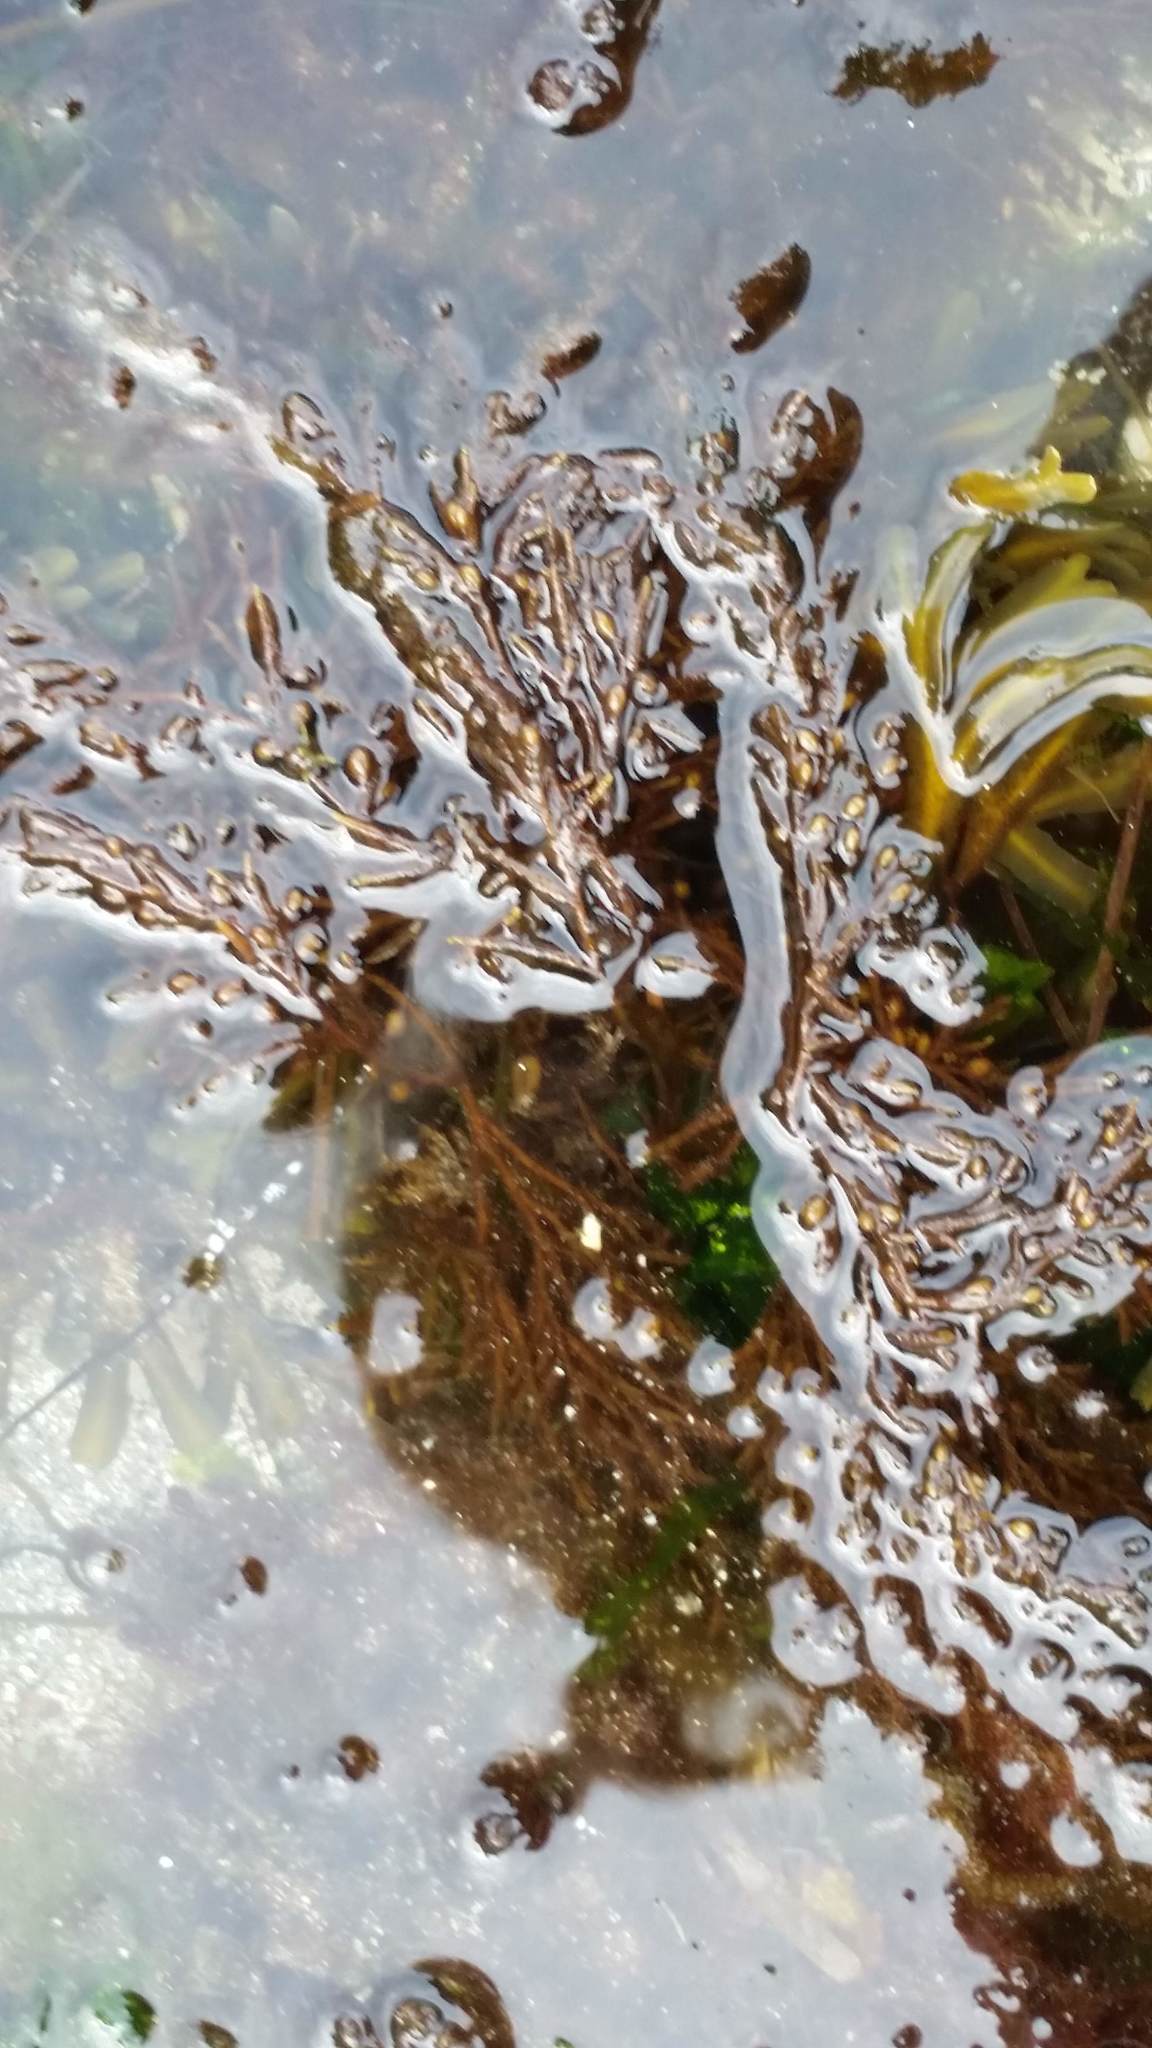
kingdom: Chromista
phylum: Ochrophyta
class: Phaeophyceae
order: Fucales
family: Sargassaceae
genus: Sargassum
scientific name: Sargassum muticum
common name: Japweed
